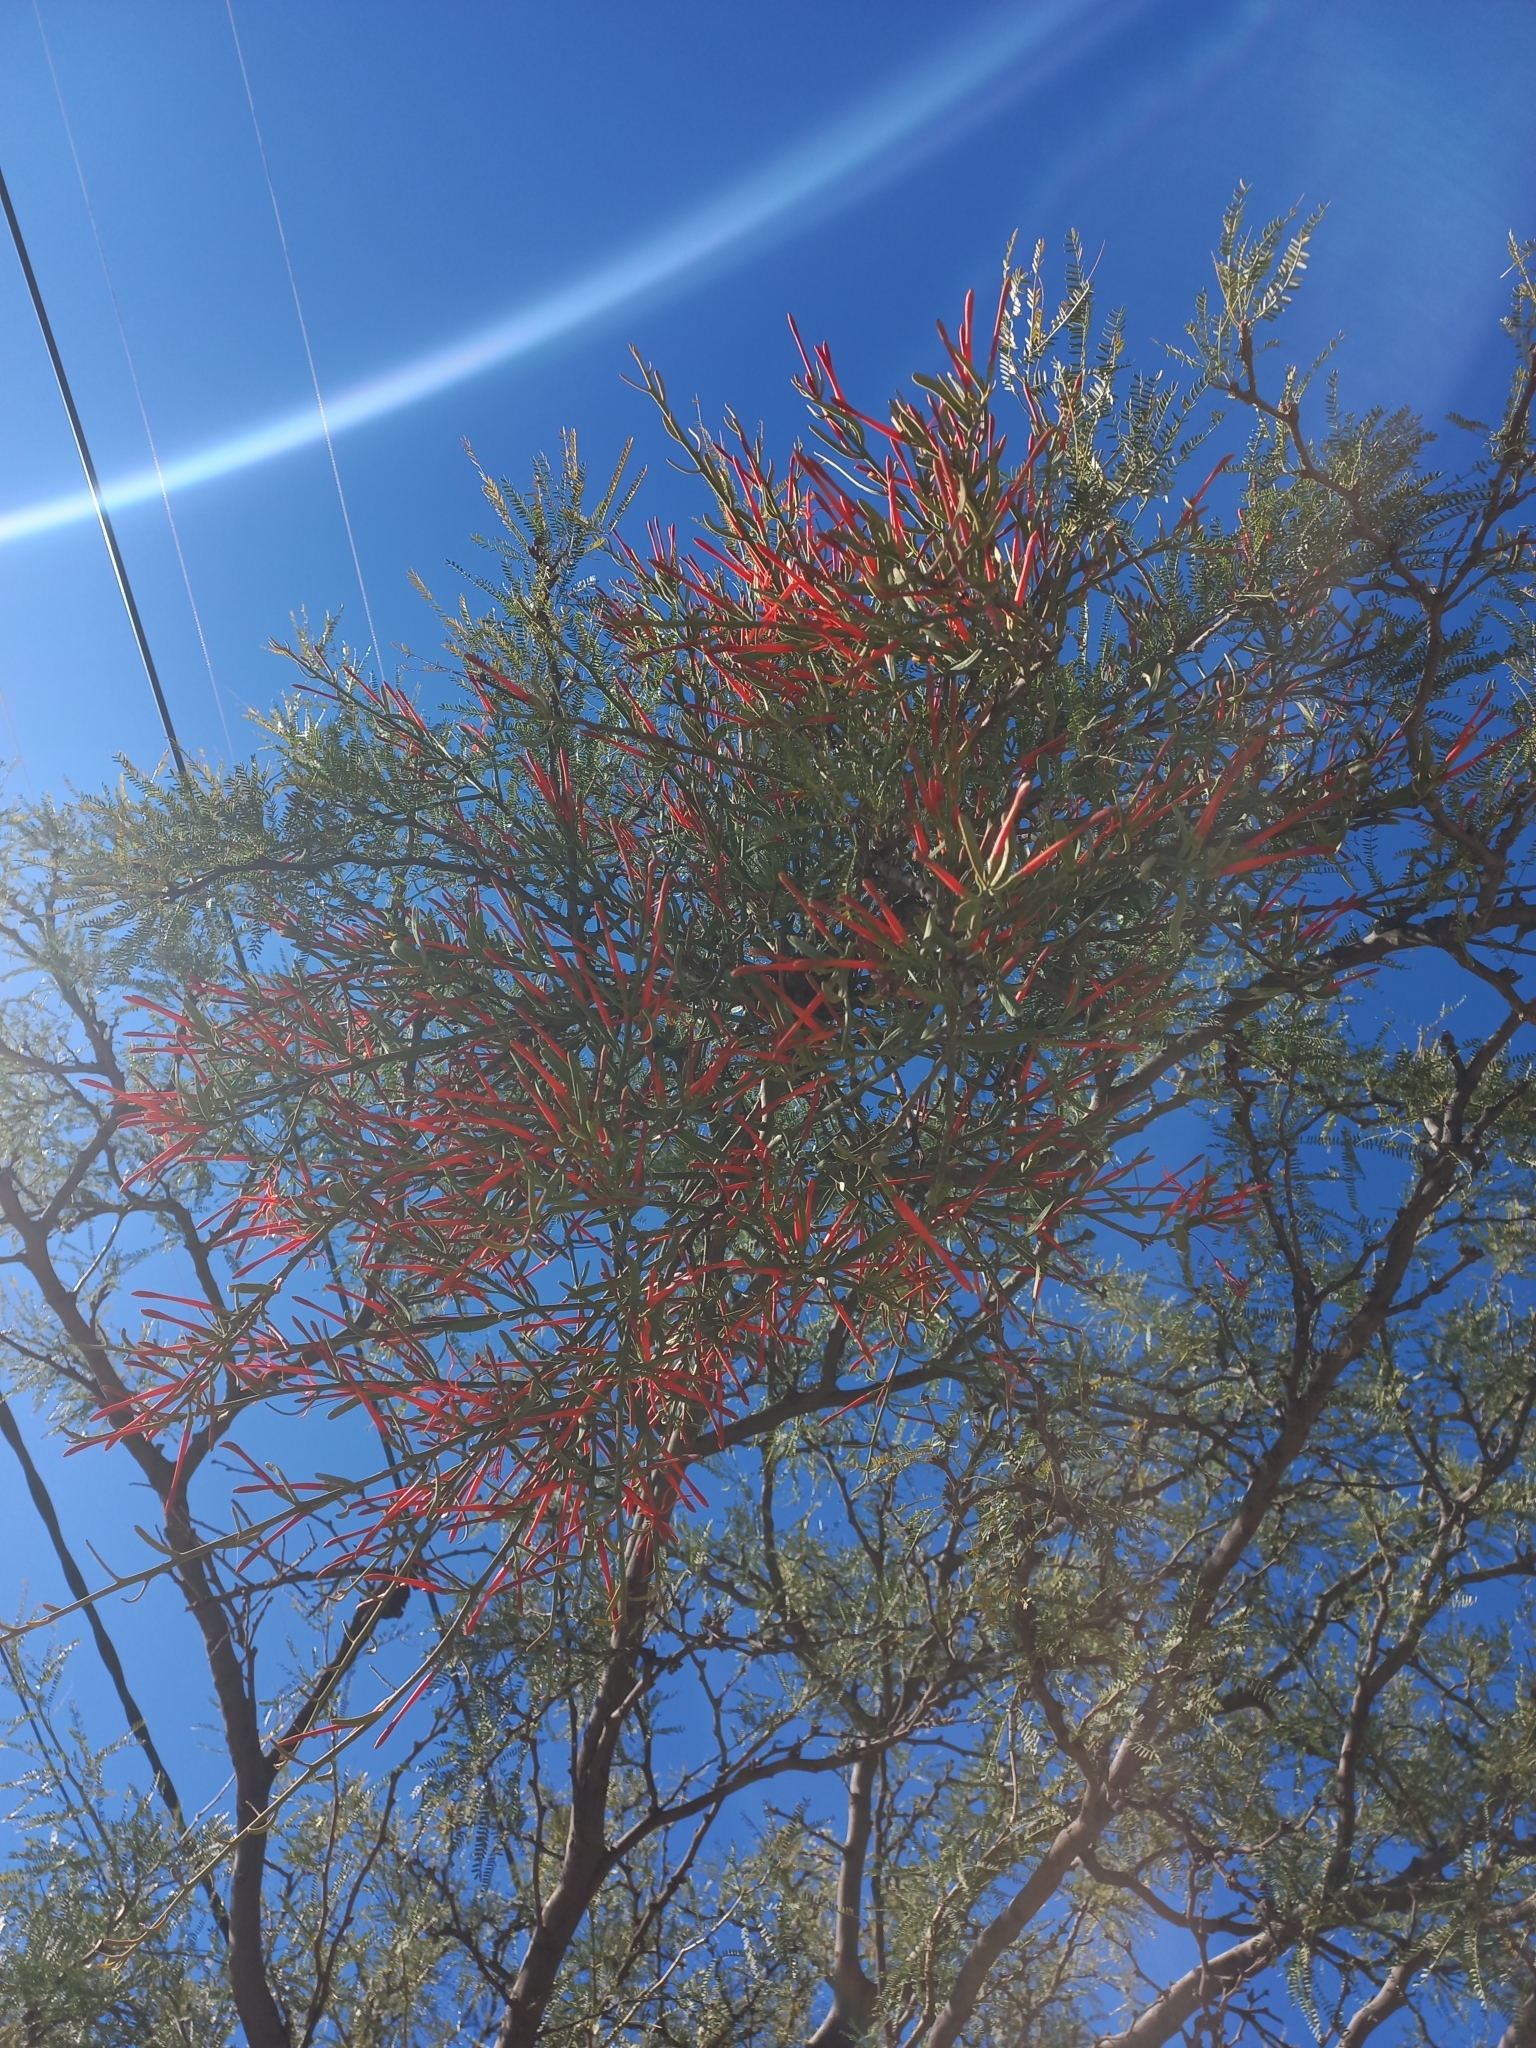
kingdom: Plantae
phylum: Tracheophyta
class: Magnoliopsida
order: Santalales
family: Loranthaceae
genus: Ligaria
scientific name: Ligaria cuneifolia
